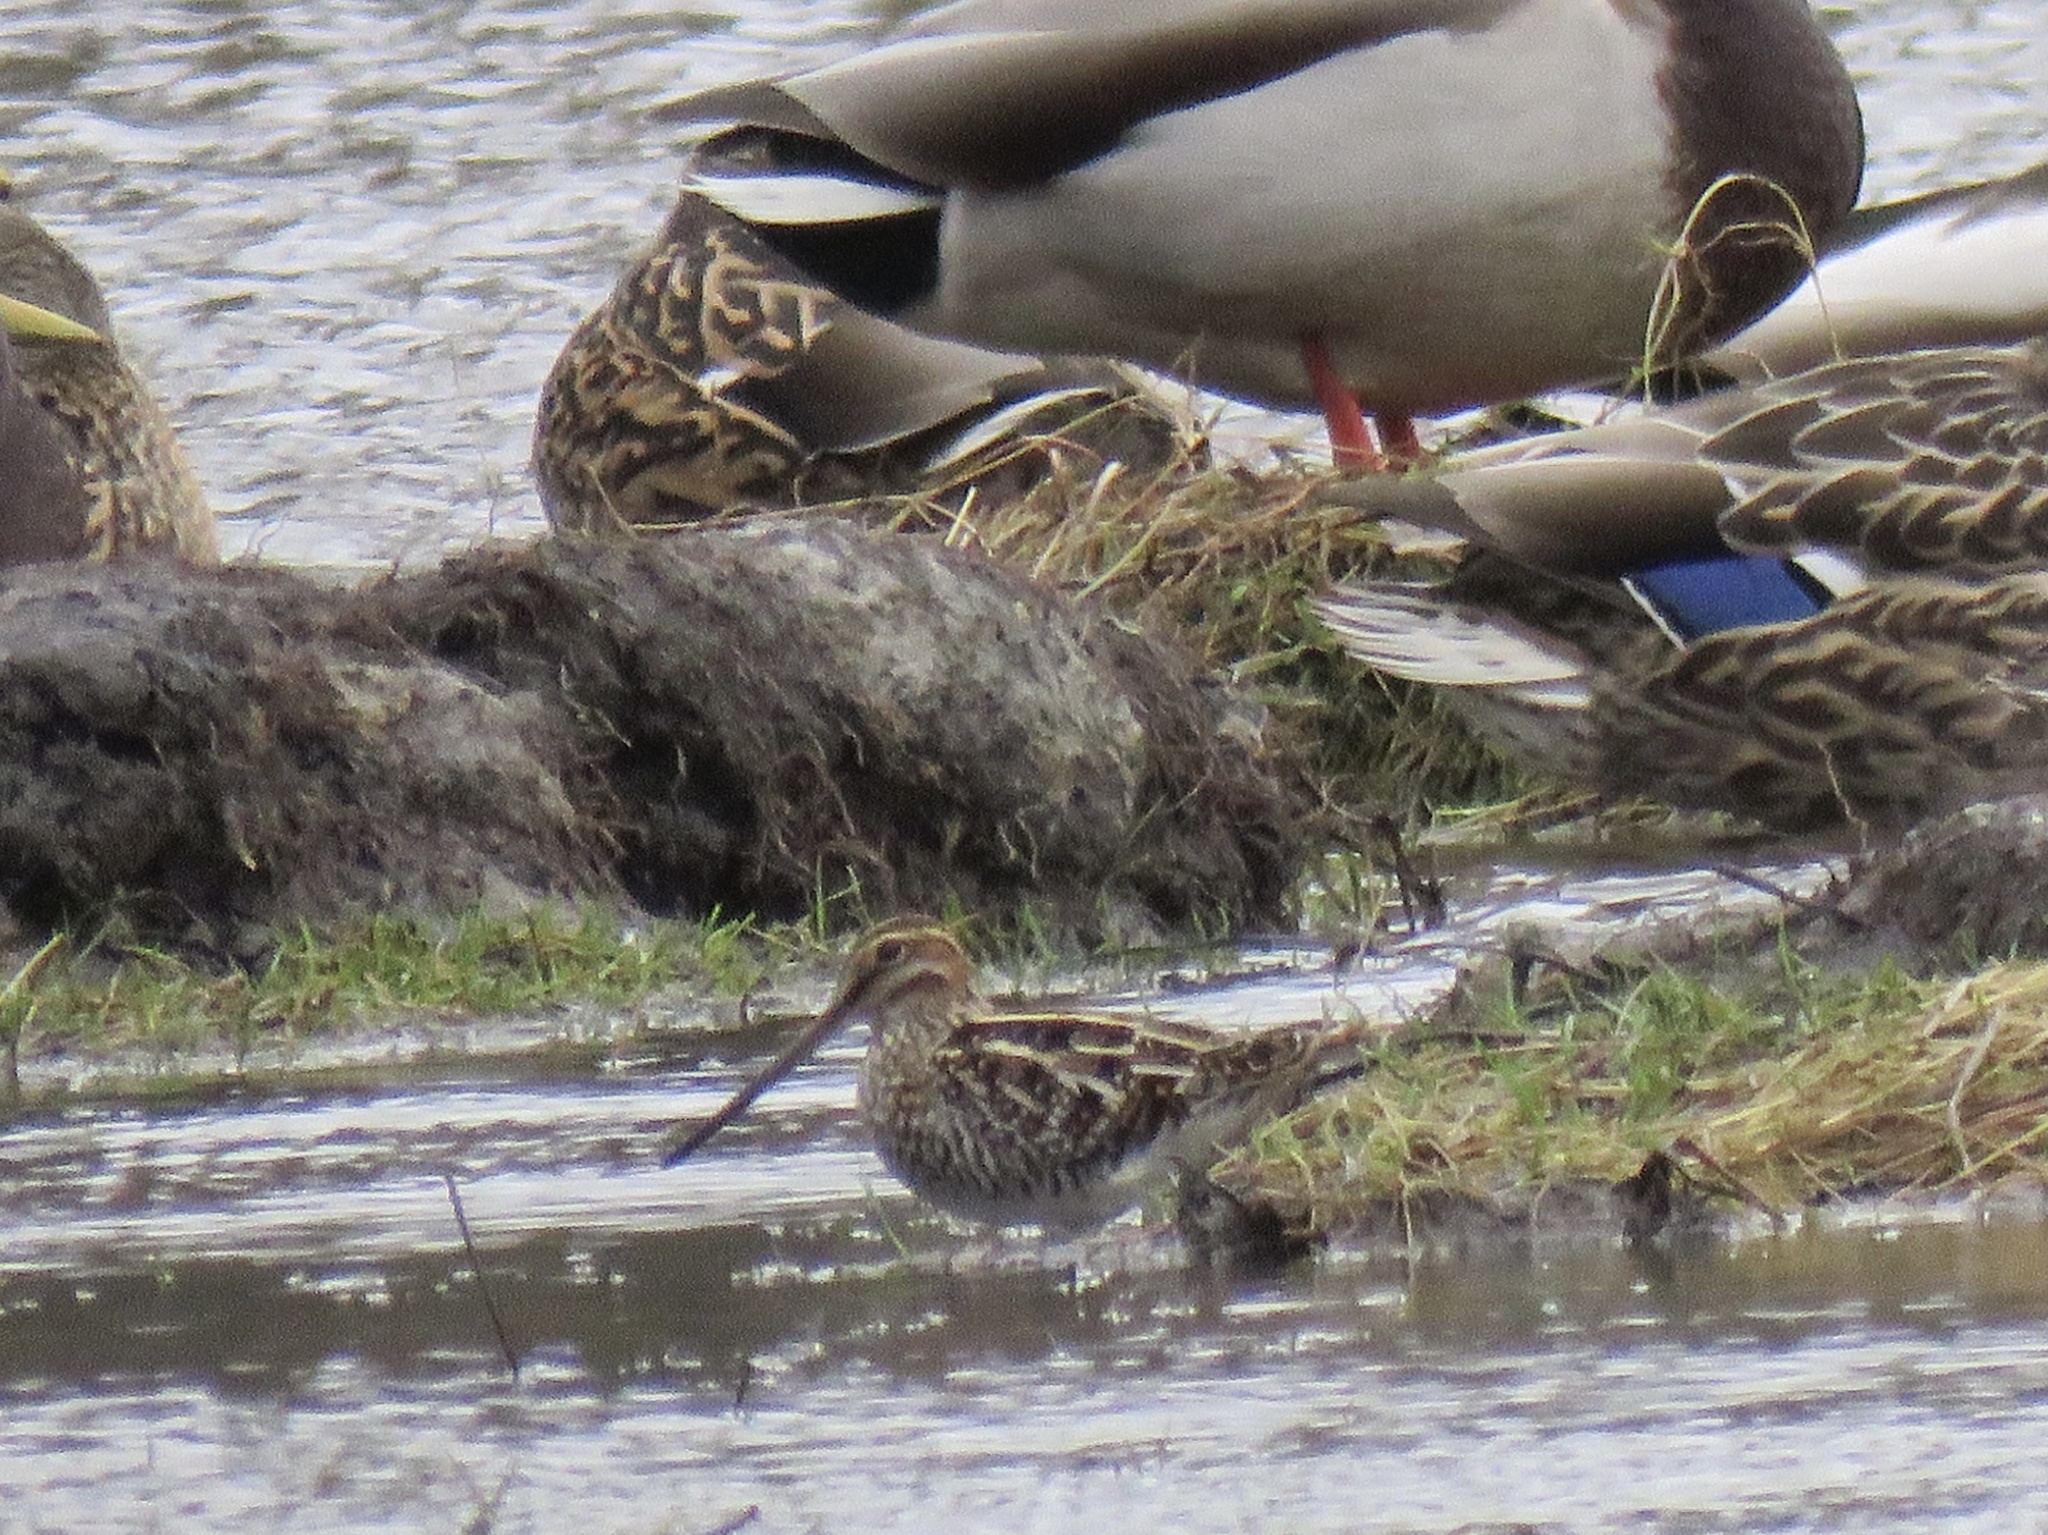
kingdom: Animalia
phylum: Chordata
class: Aves
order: Charadriiformes
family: Scolopacidae
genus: Gallinago
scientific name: Gallinago delicata
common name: Wilson's snipe
